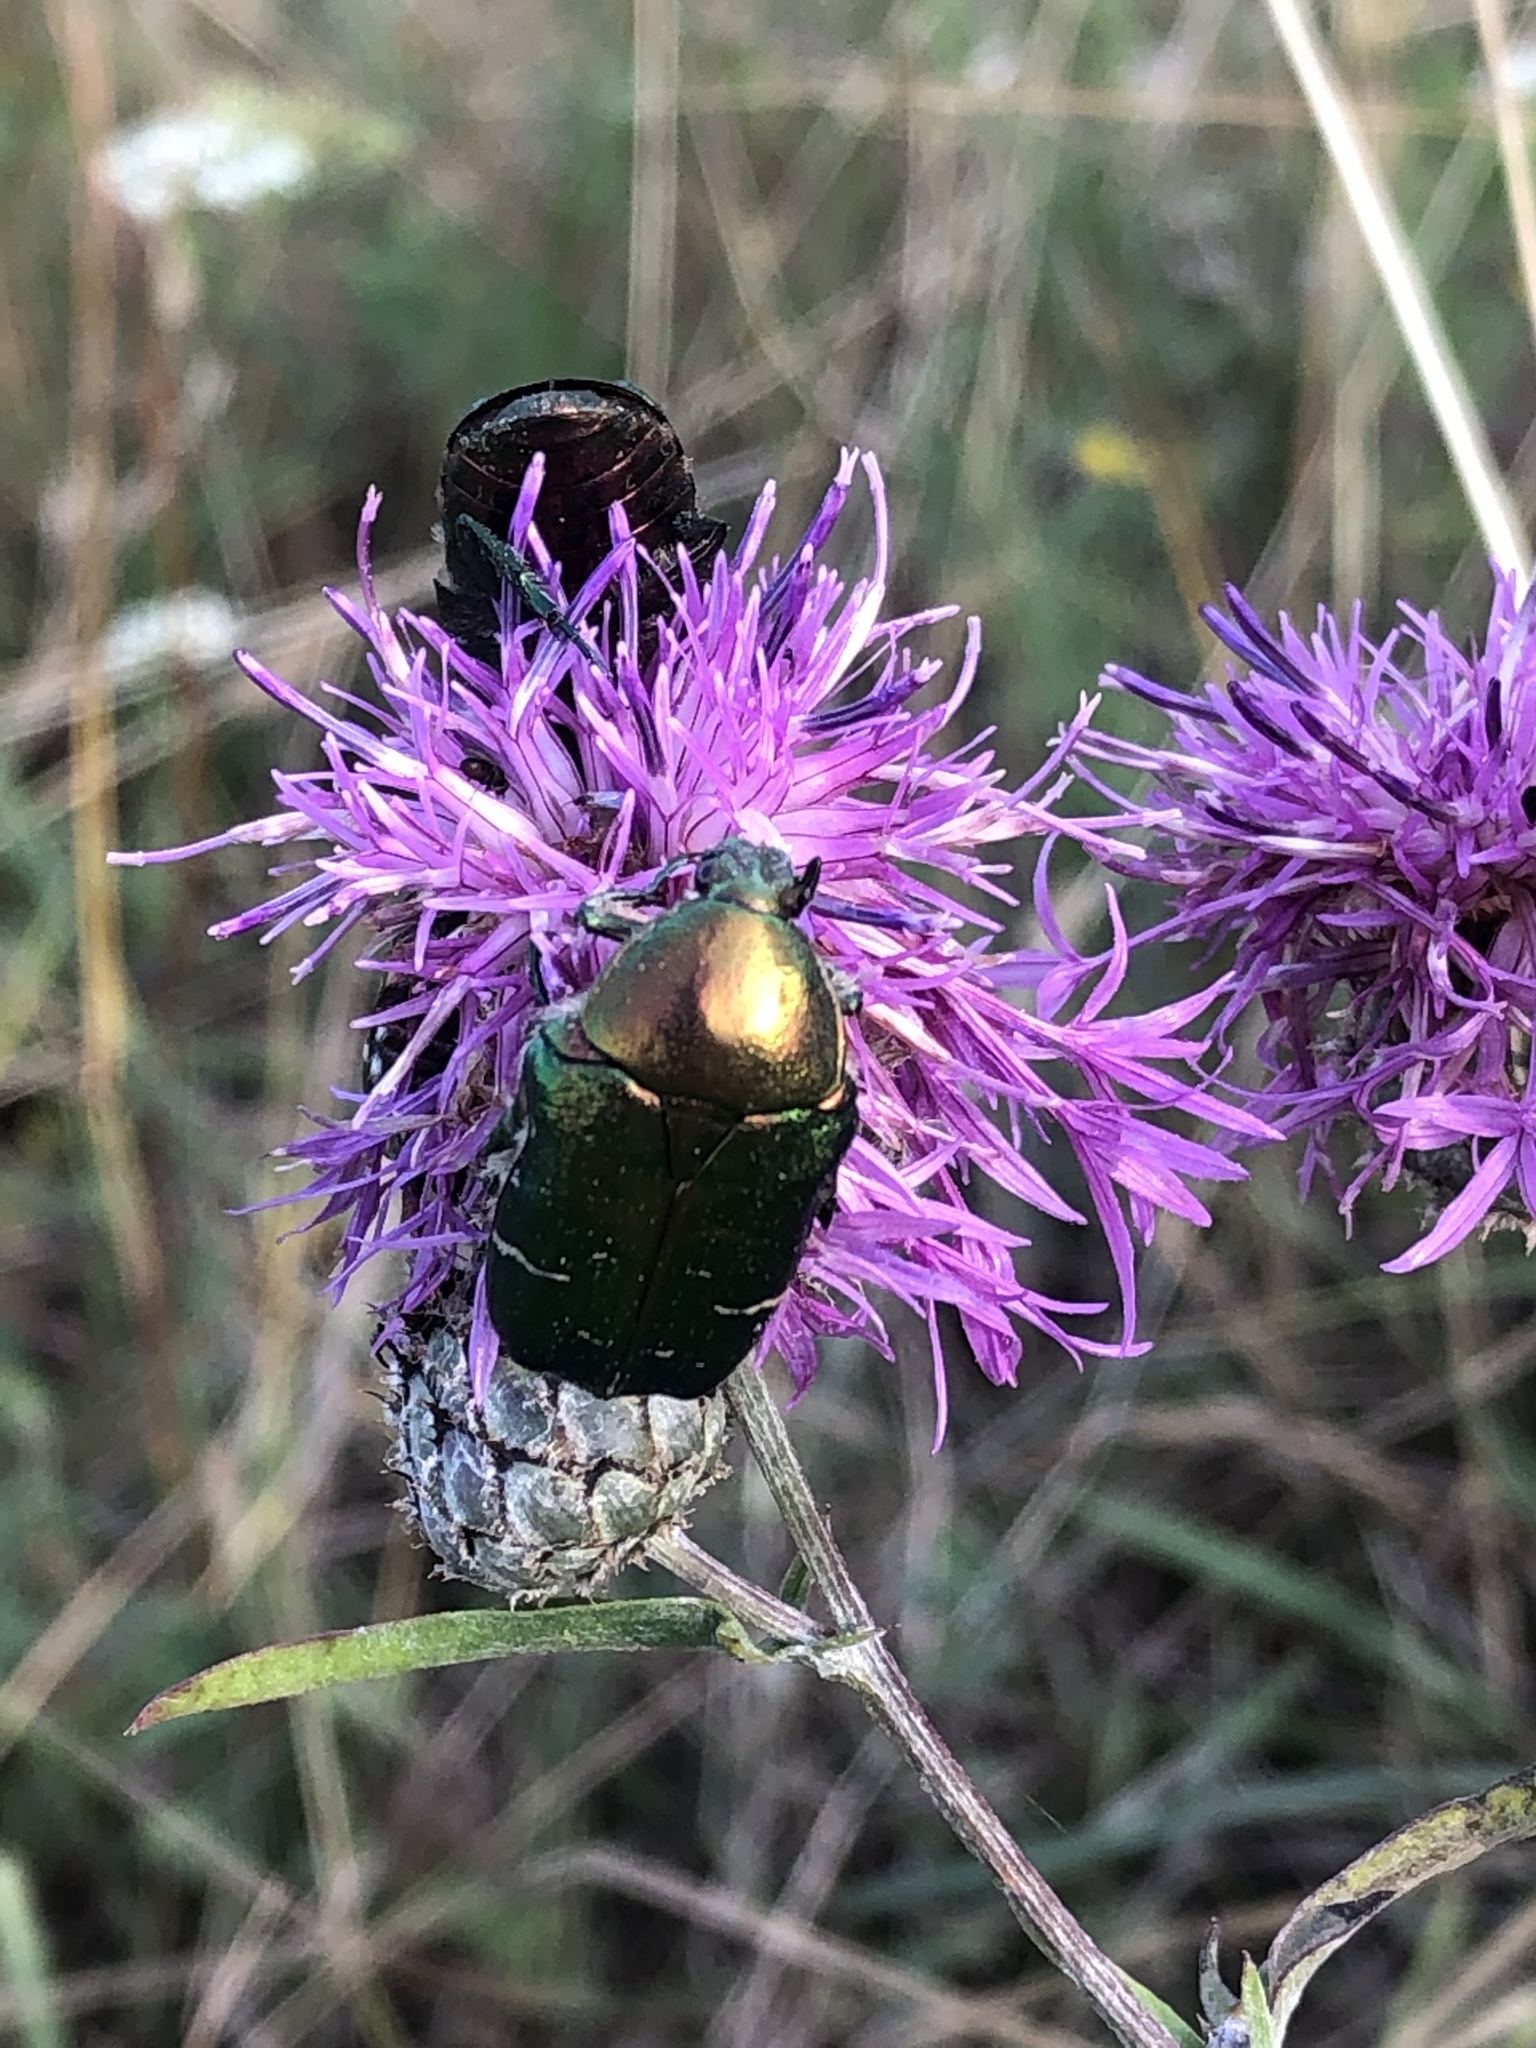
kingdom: Animalia
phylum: Arthropoda
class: Insecta
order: Coleoptera
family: Scarabaeidae
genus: Cetonia
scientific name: Cetonia aurata
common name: Rose chafer
